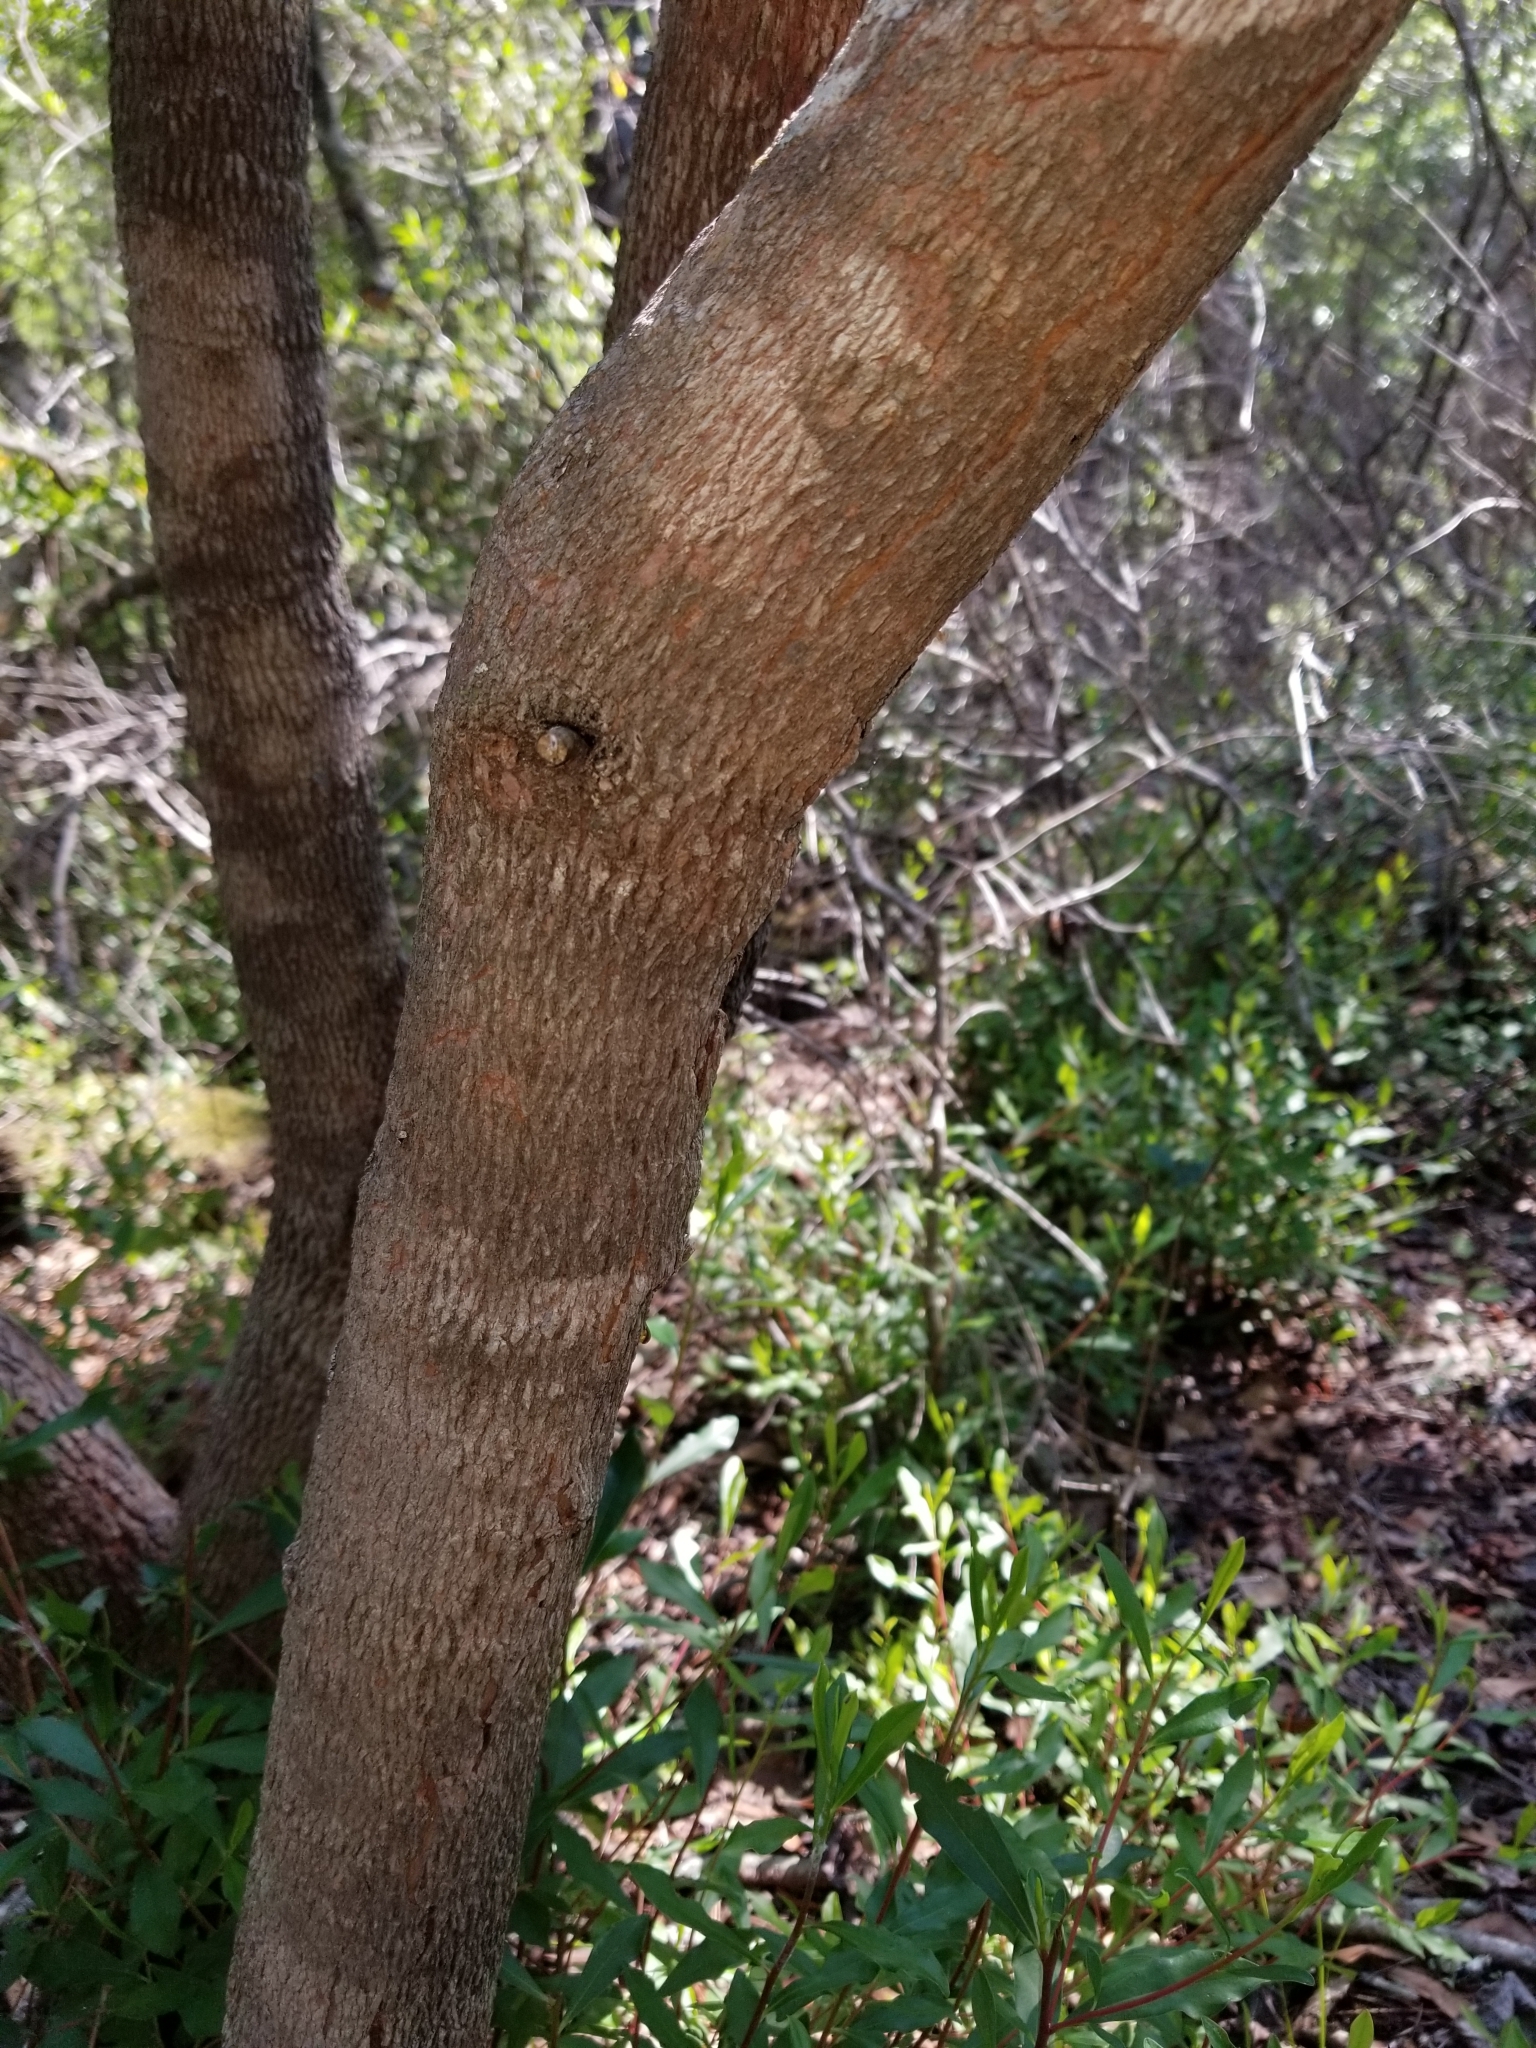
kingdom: Plantae
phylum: Tracheophyta
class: Magnoliopsida
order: Ericales
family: Cyrillaceae
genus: Cyrilla
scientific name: Cyrilla racemiflora
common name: Black titi
